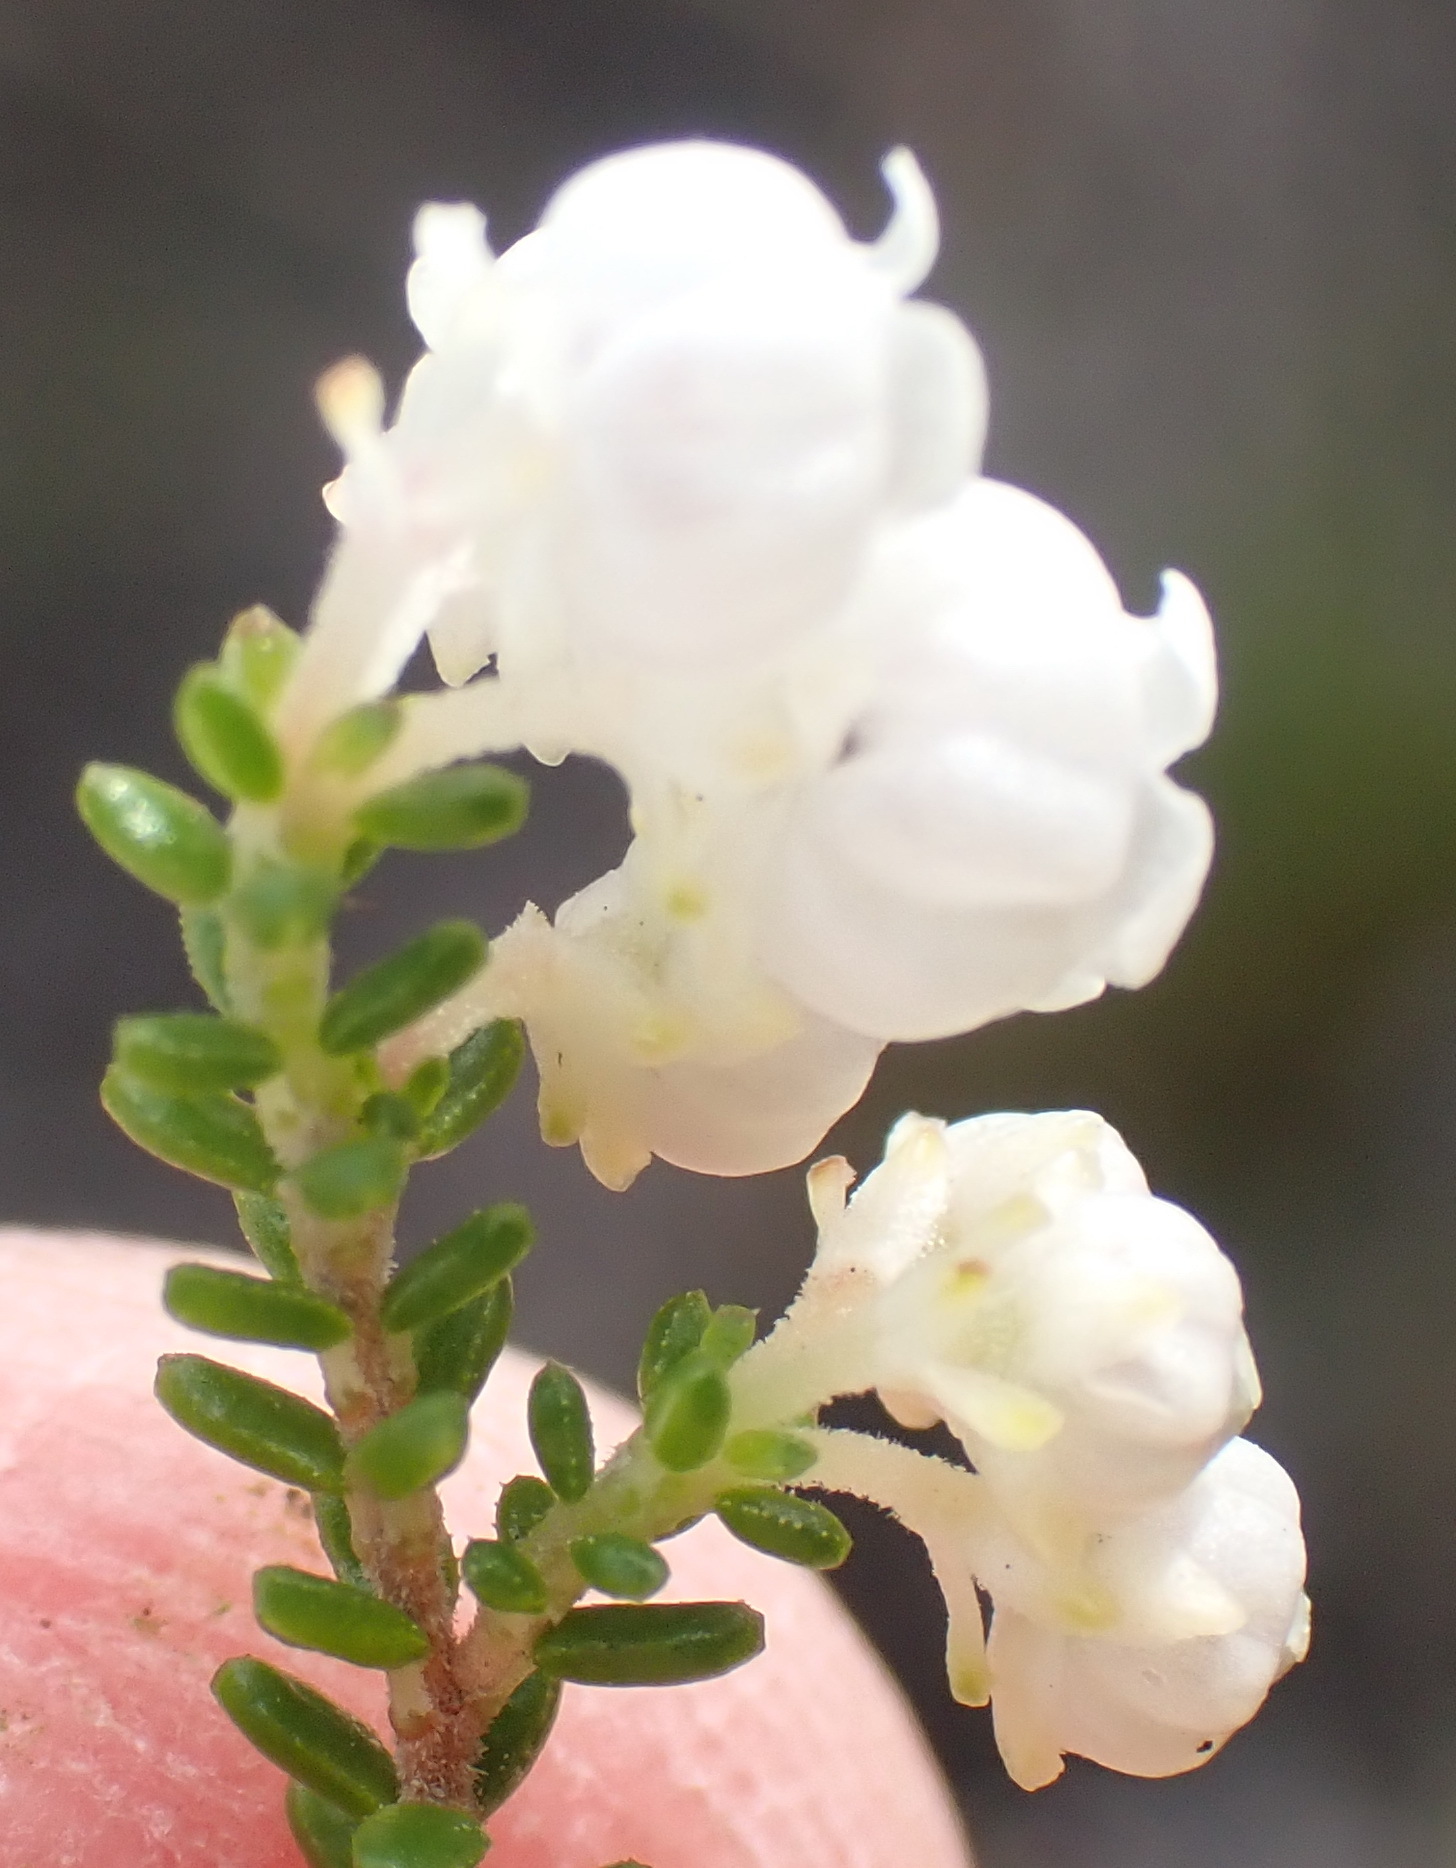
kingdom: Plantae
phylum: Tracheophyta
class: Magnoliopsida
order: Ericales
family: Ericaceae
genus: Erica
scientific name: Erica formosa
